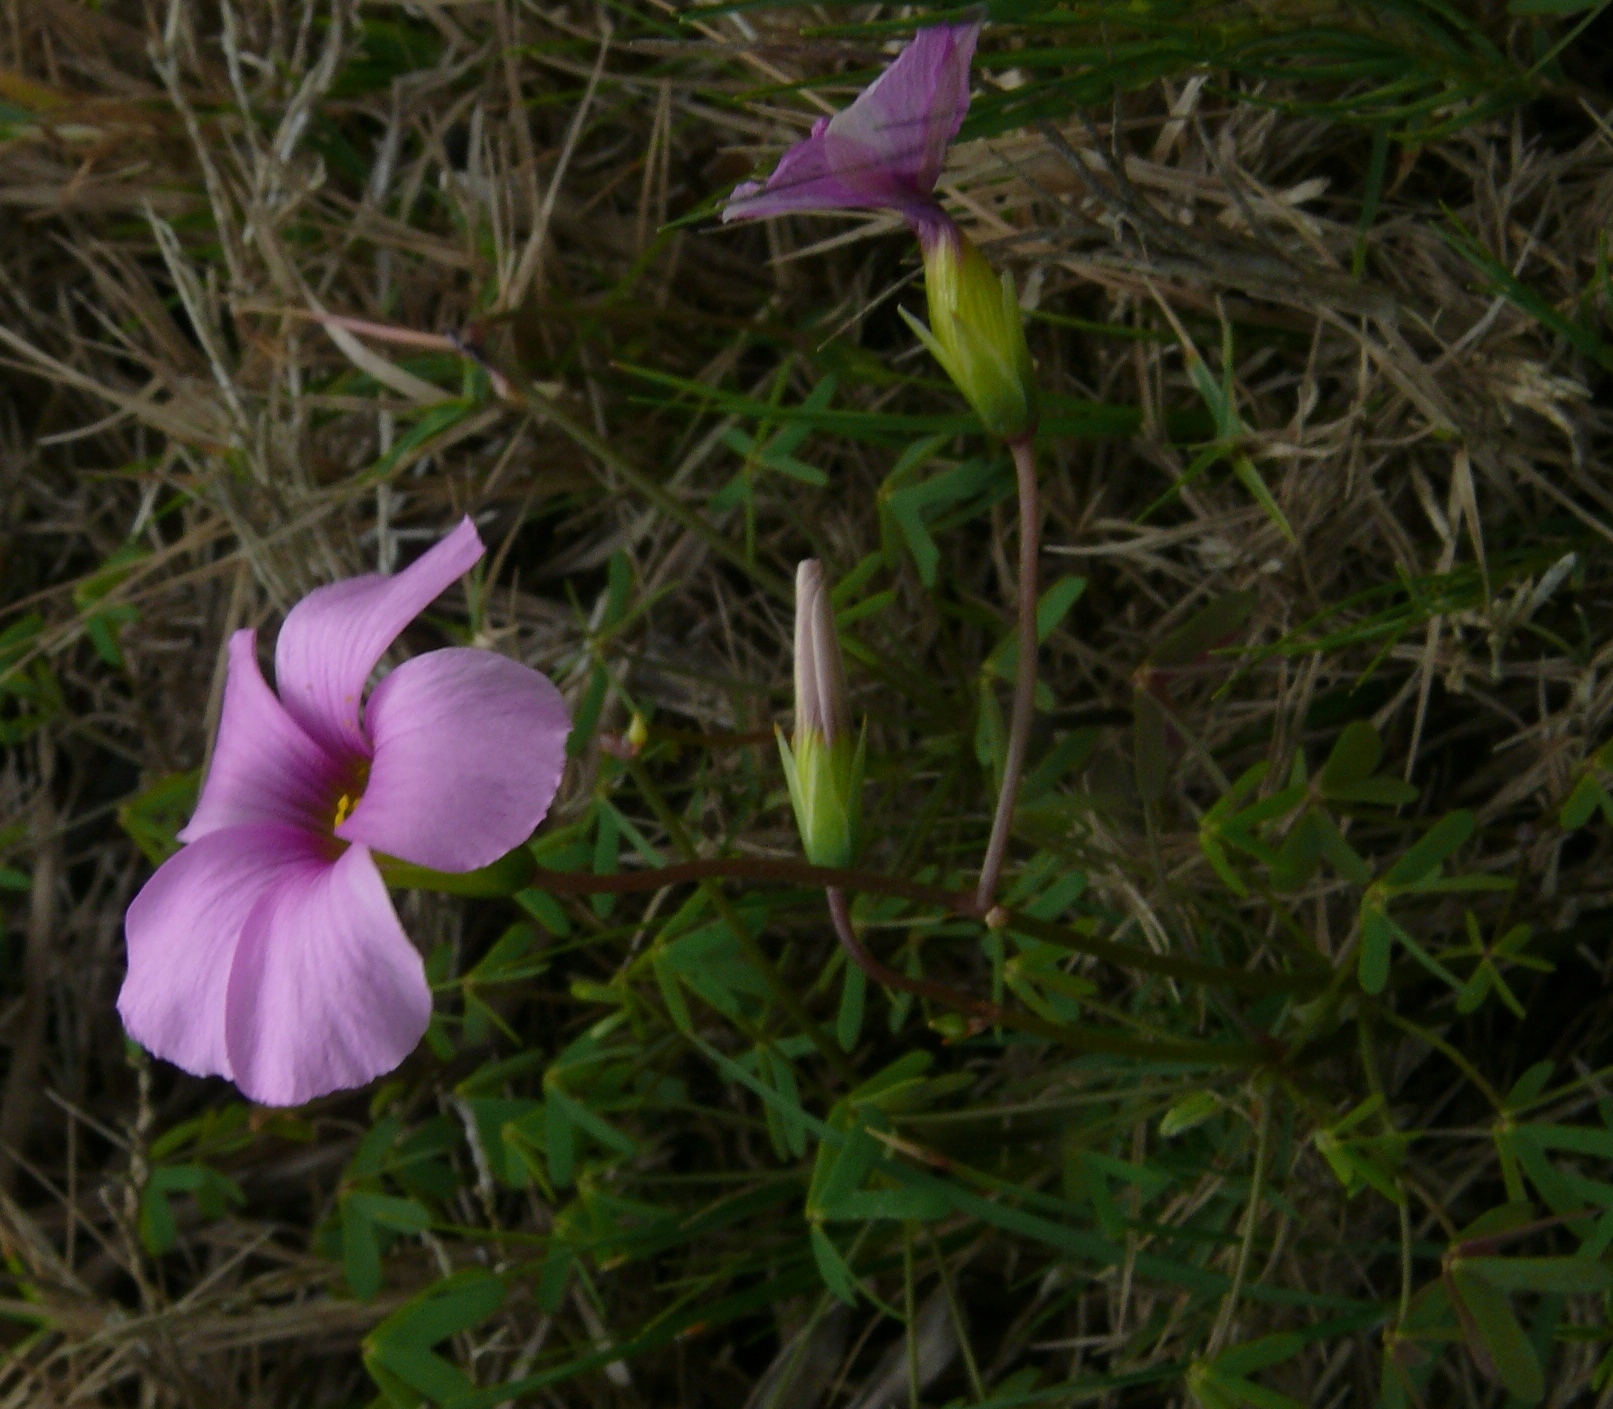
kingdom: Plantae
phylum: Tracheophyta
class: Magnoliopsida
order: Oxalidales
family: Oxalidaceae
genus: Oxalis
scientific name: Oxalis stellata
